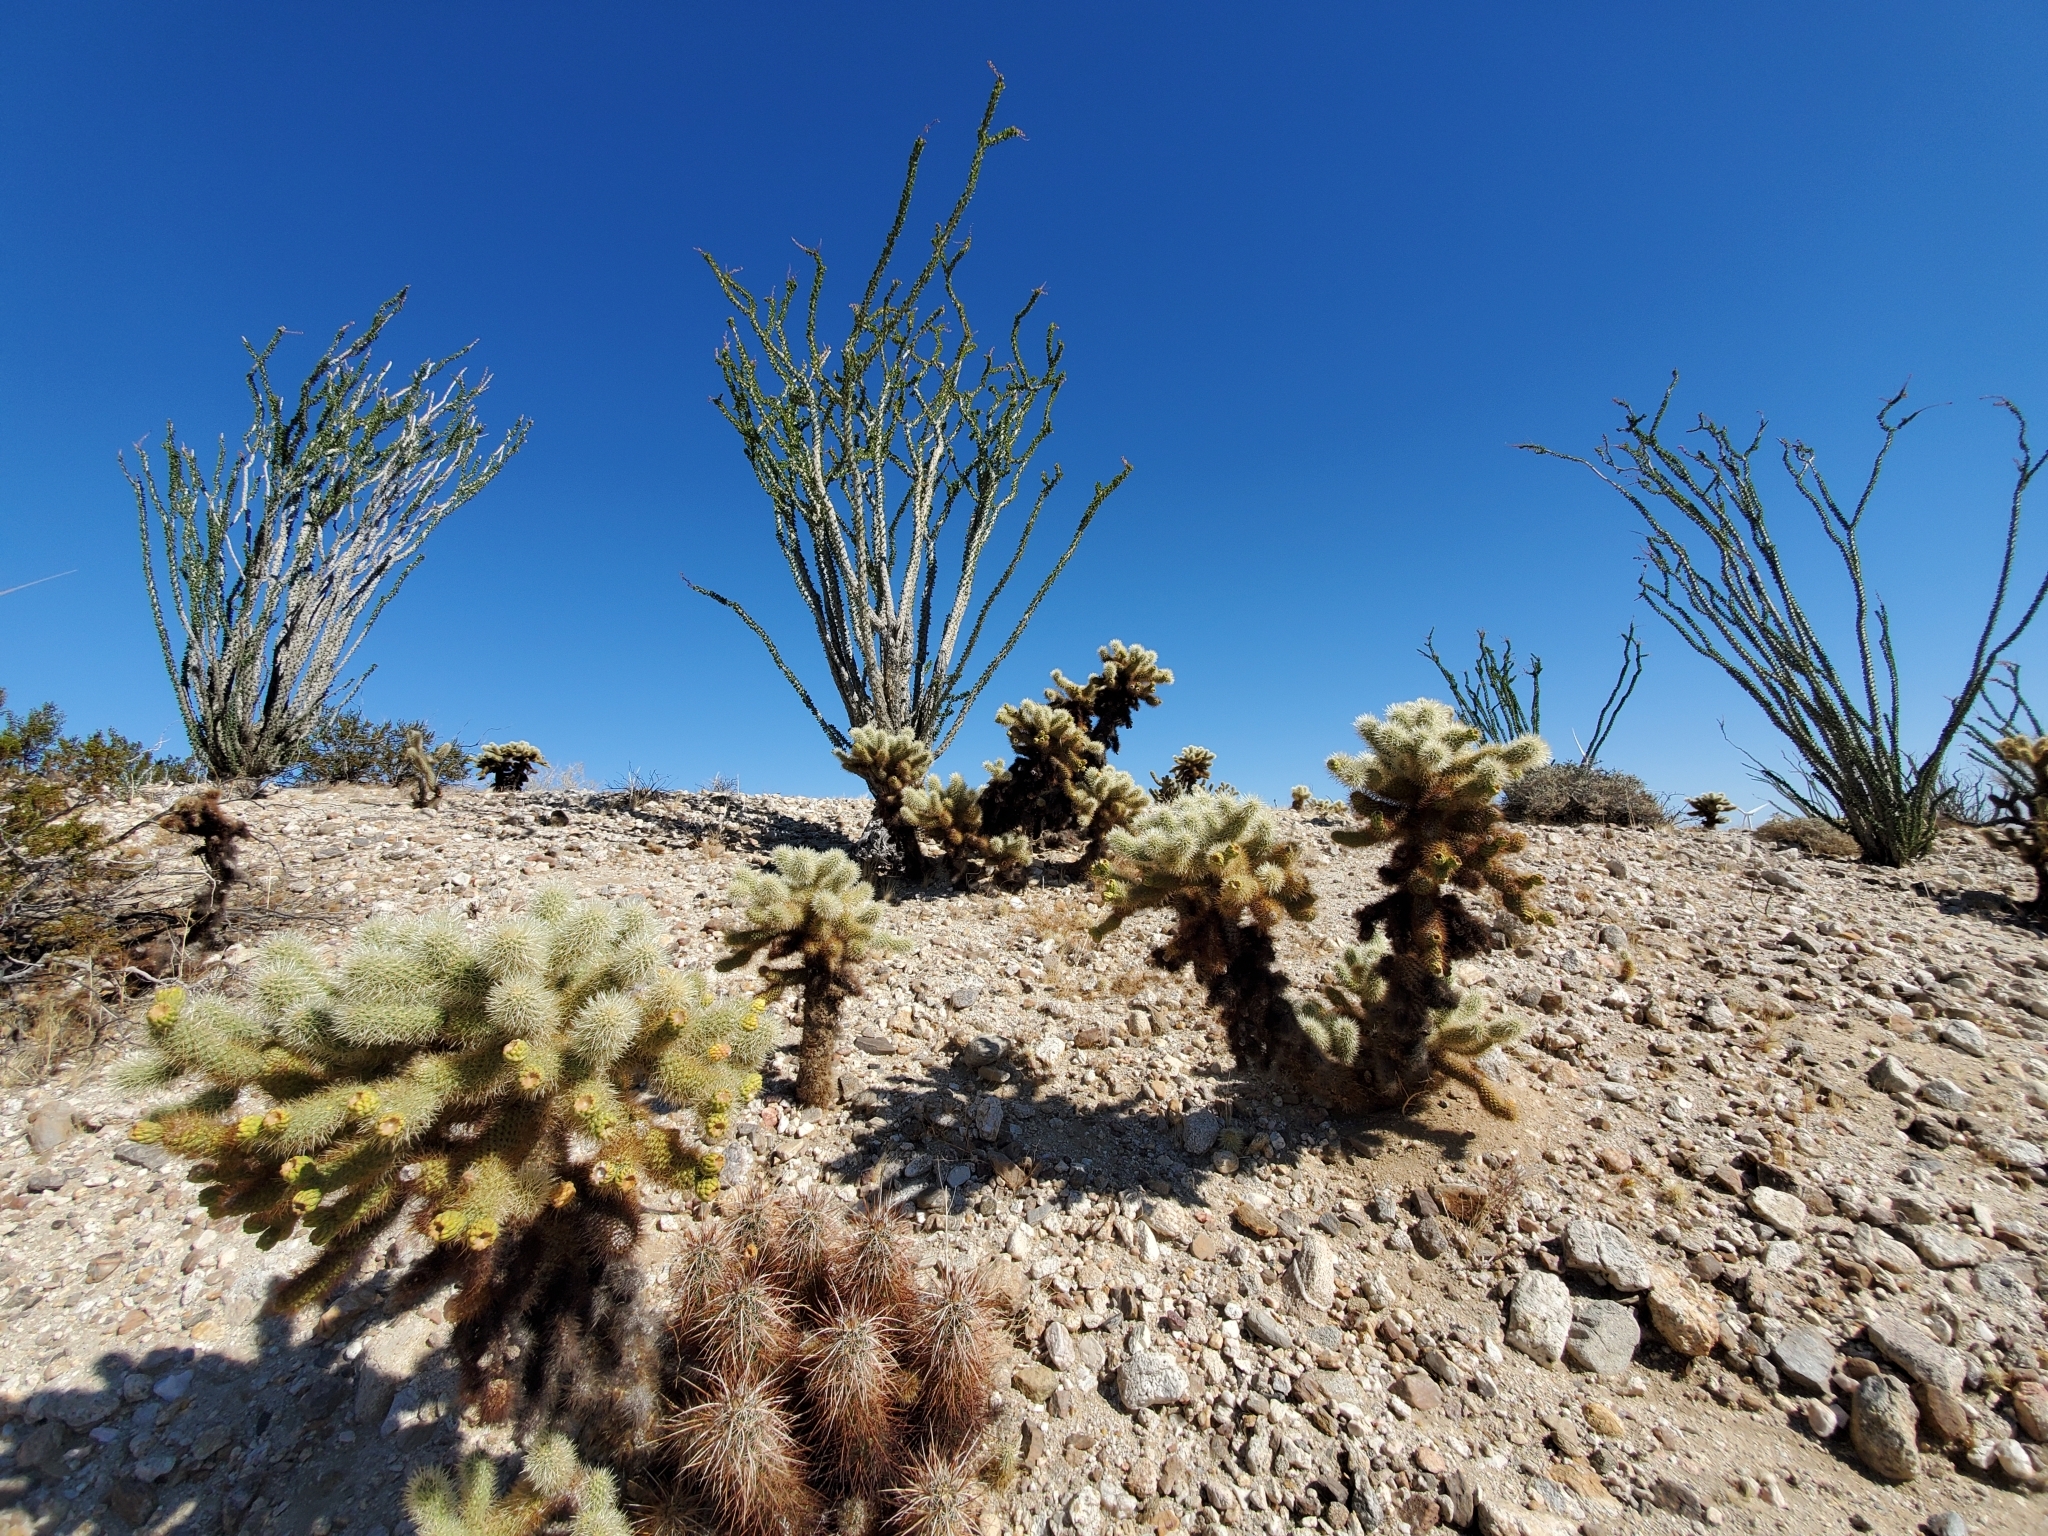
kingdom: Plantae
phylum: Tracheophyta
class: Magnoliopsida
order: Ericales
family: Fouquieriaceae
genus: Fouquieria
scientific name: Fouquieria splendens
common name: Vine-cactus
